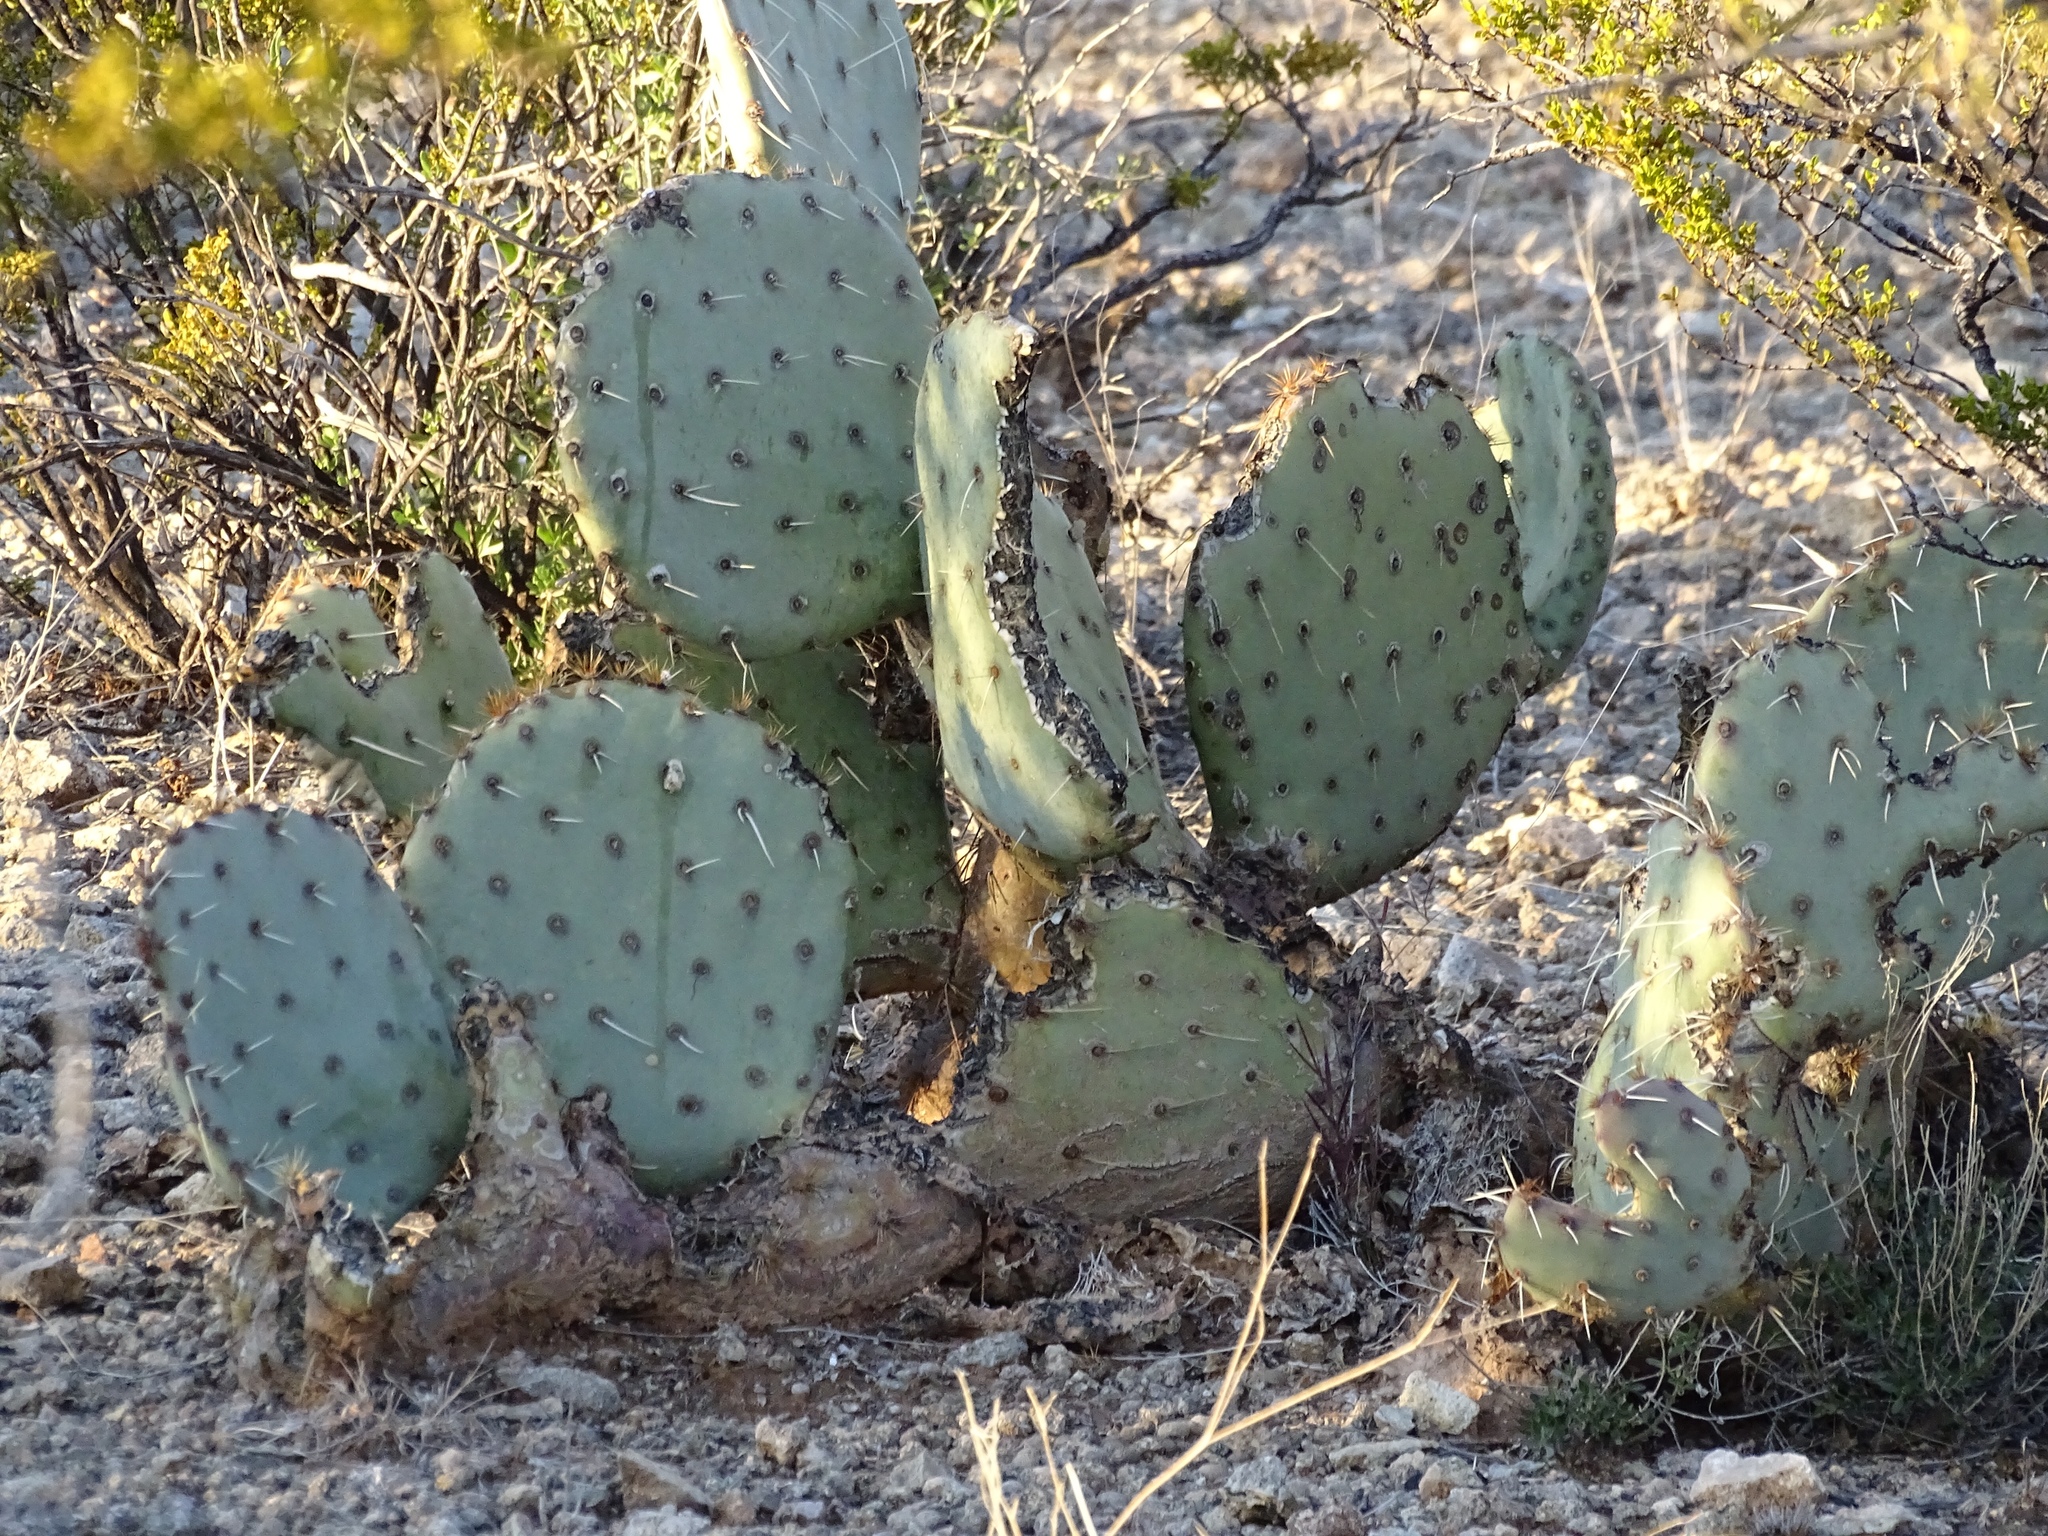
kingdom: Plantae
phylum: Tracheophyta
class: Magnoliopsida
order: Caryophyllales
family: Cactaceae
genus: Opuntia
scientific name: Opuntia engelmannii
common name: Cactus-apple
